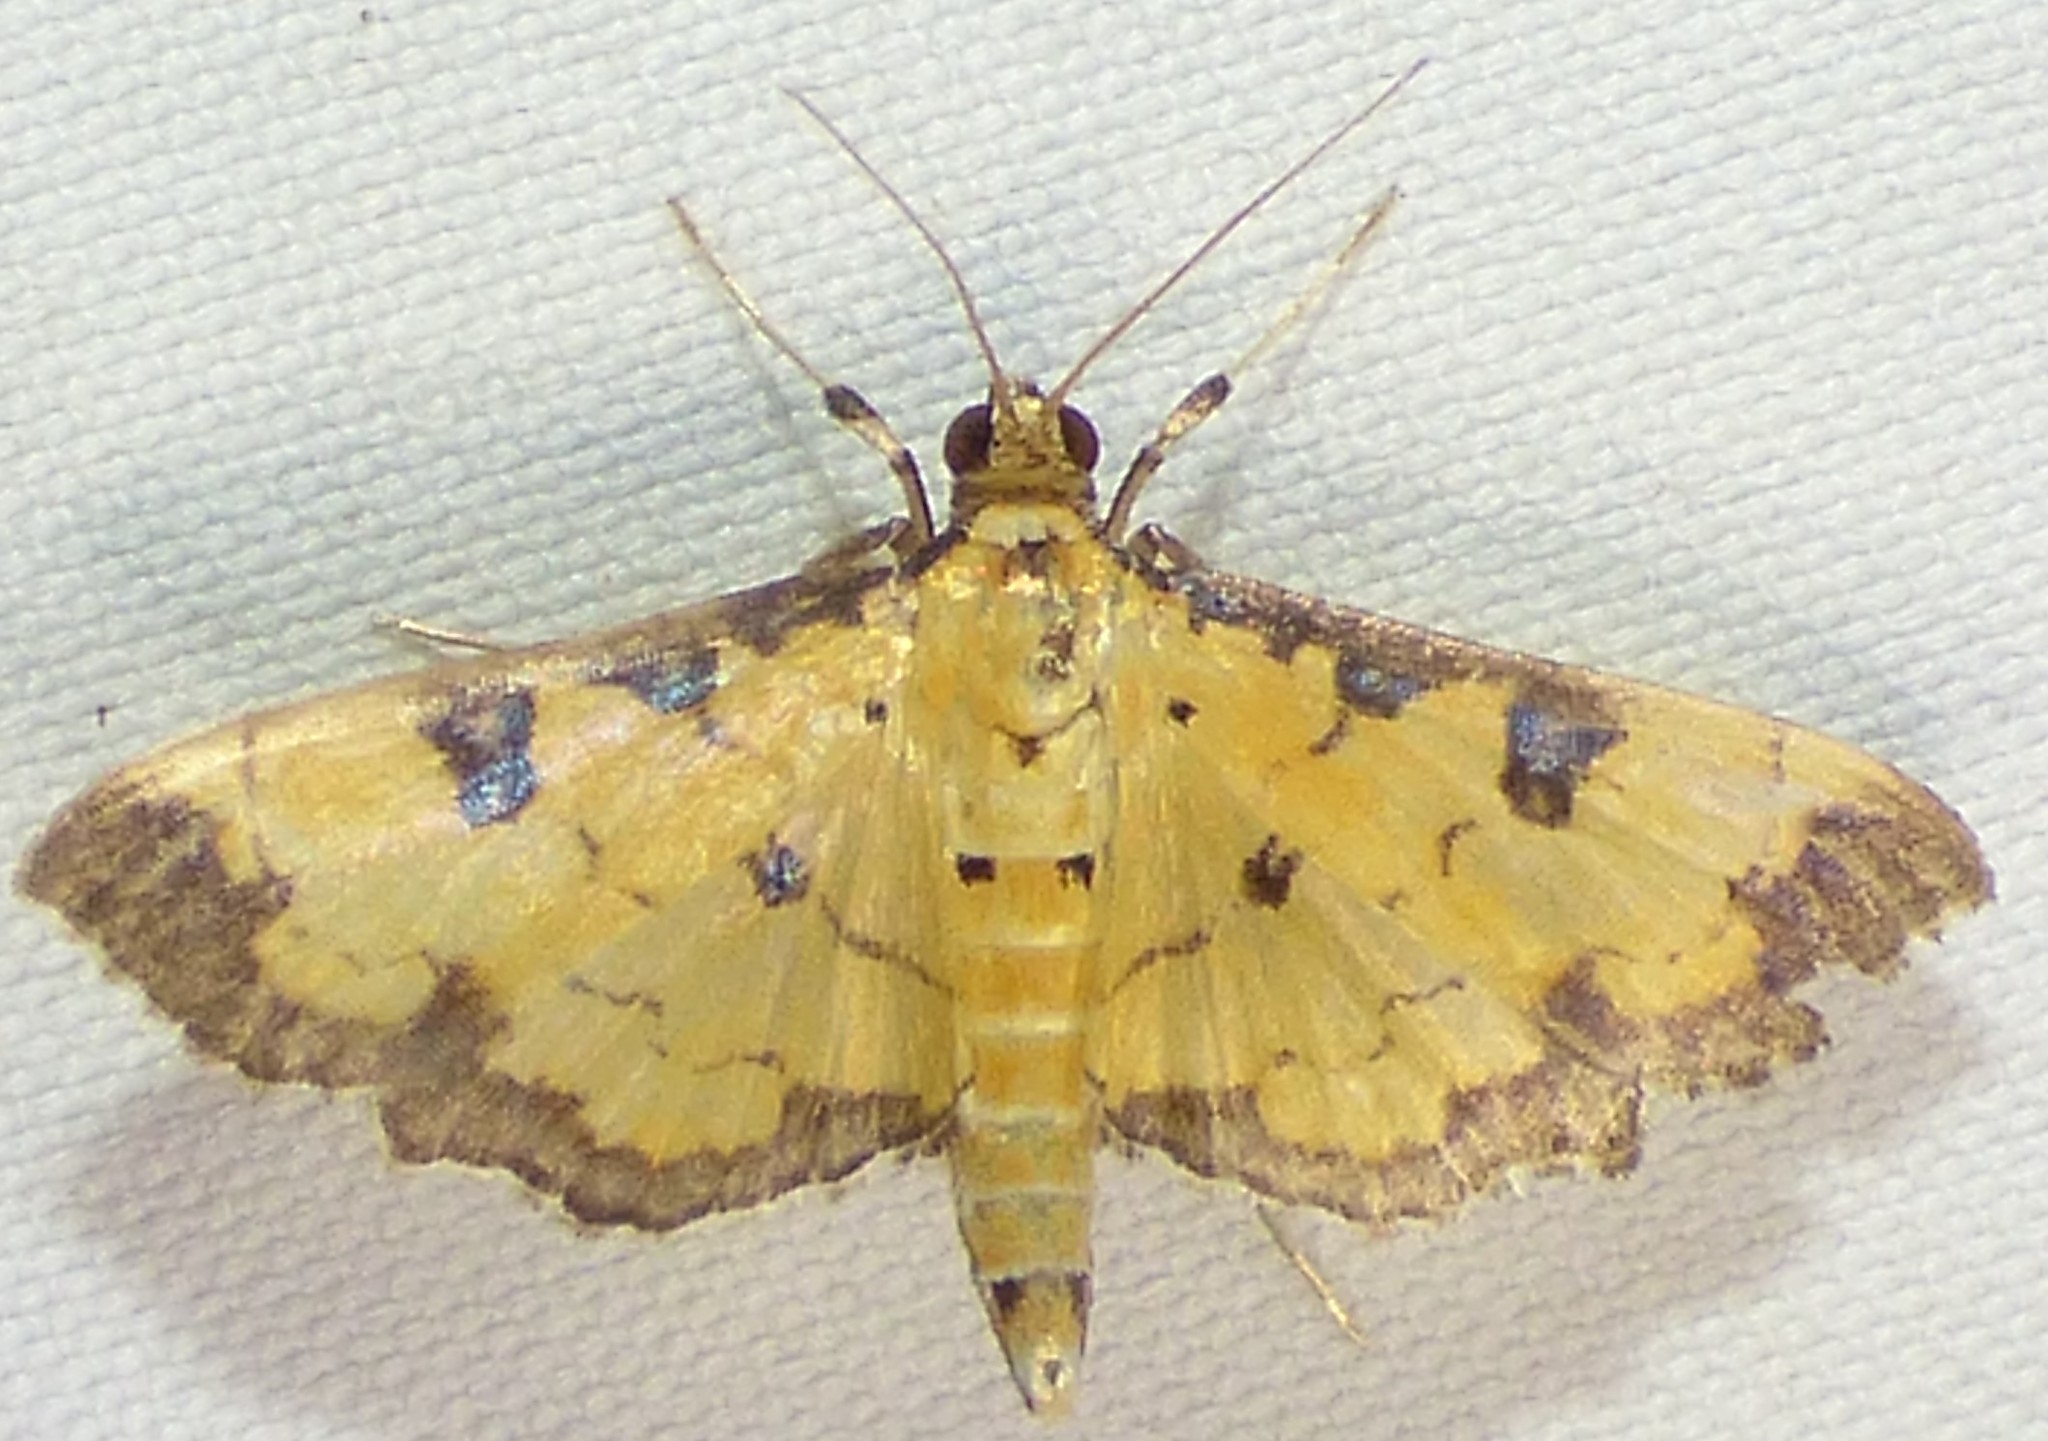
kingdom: Animalia
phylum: Arthropoda
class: Insecta
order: Lepidoptera
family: Crambidae
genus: Ategumia
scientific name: Ategumia ebulealis
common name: Moth
